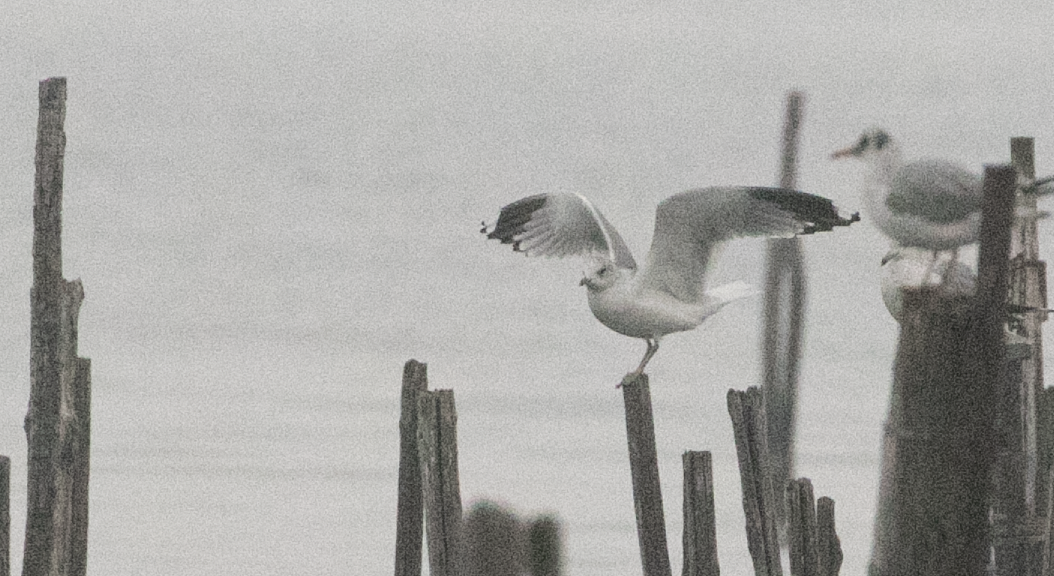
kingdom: Animalia
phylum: Chordata
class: Aves
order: Charadriiformes
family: Laridae
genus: Larus
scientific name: Larus canus
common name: Mew gull
